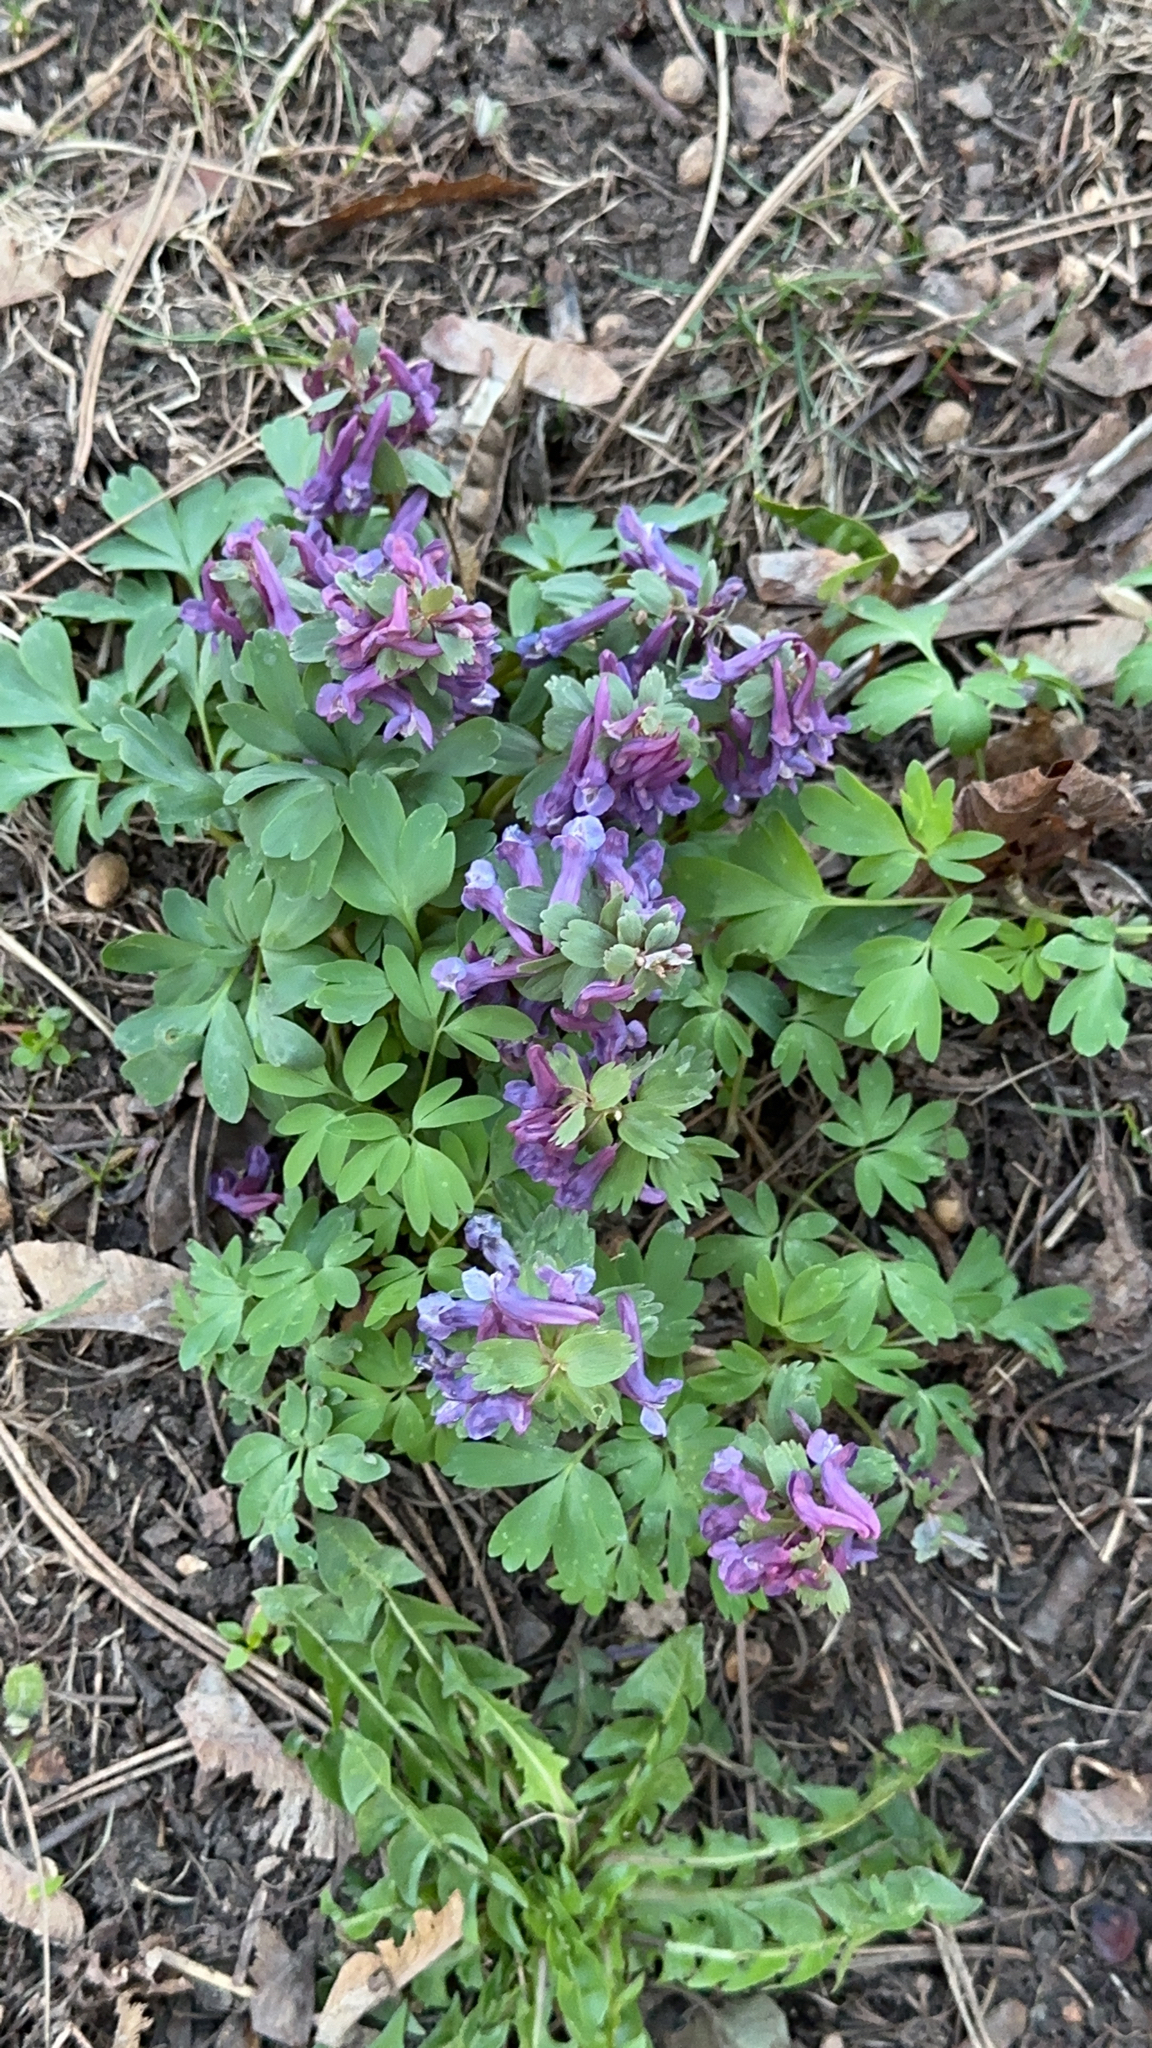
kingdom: Plantae
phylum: Tracheophyta
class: Magnoliopsida
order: Ranunculales
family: Papaveraceae
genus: Corydalis
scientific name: Corydalis solida
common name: Bird-in-a-bush
